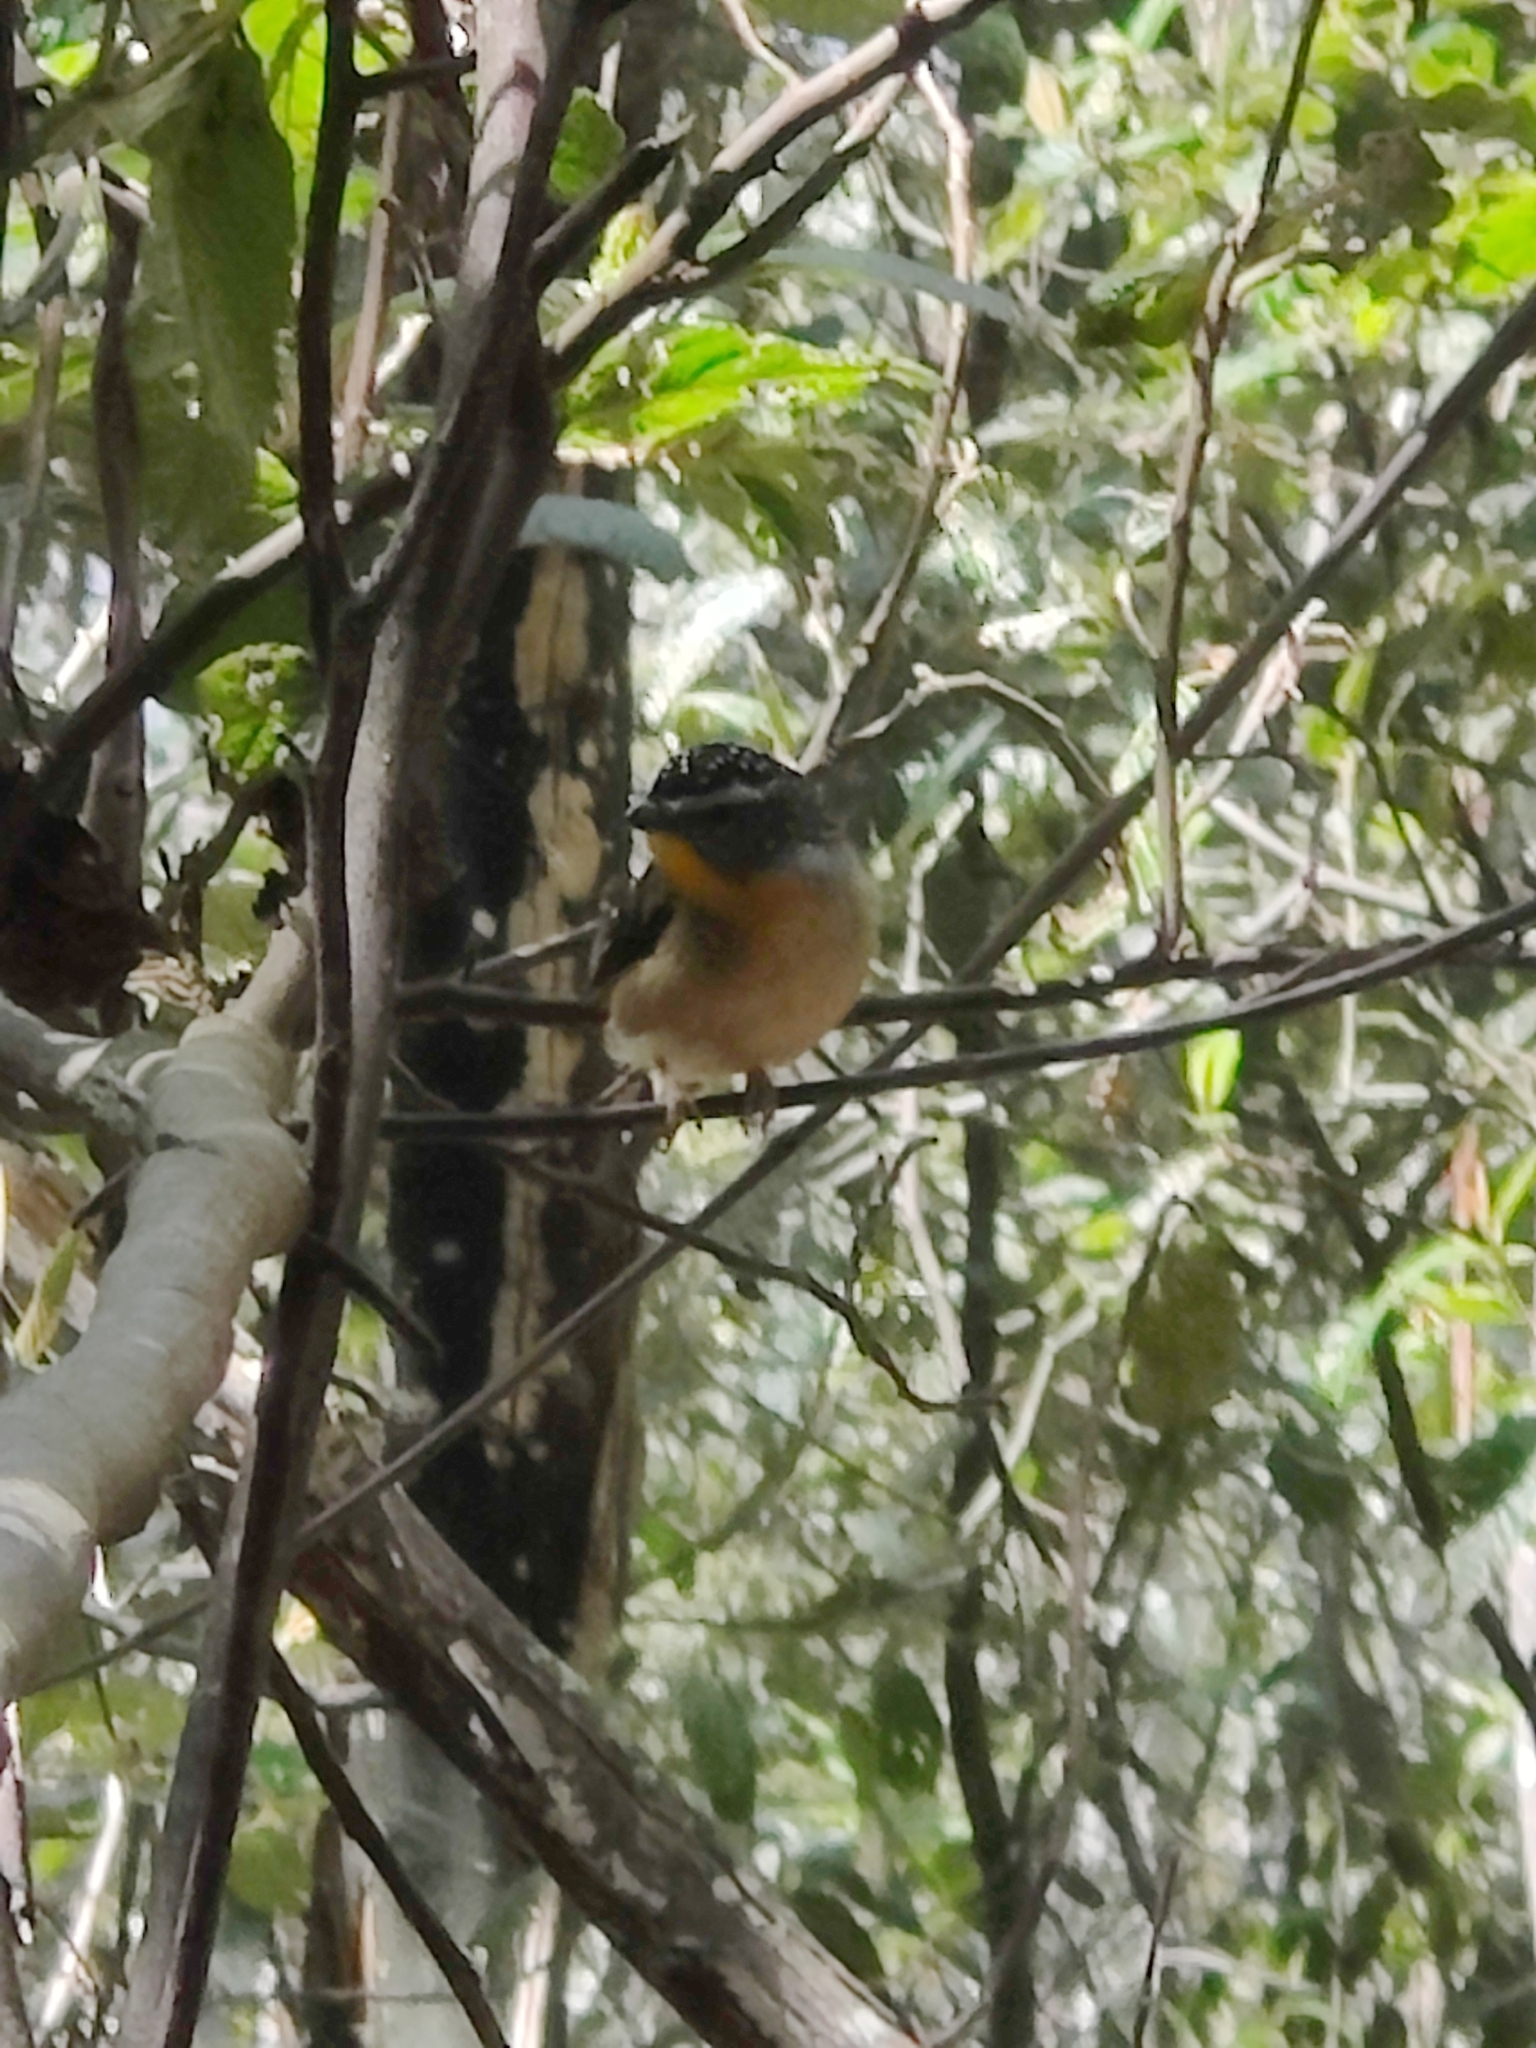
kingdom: Animalia
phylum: Chordata
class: Aves
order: Passeriformes
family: Pardalotidae
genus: Pardalotus
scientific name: Pardalotus punctatus
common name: Spotted pardalote
